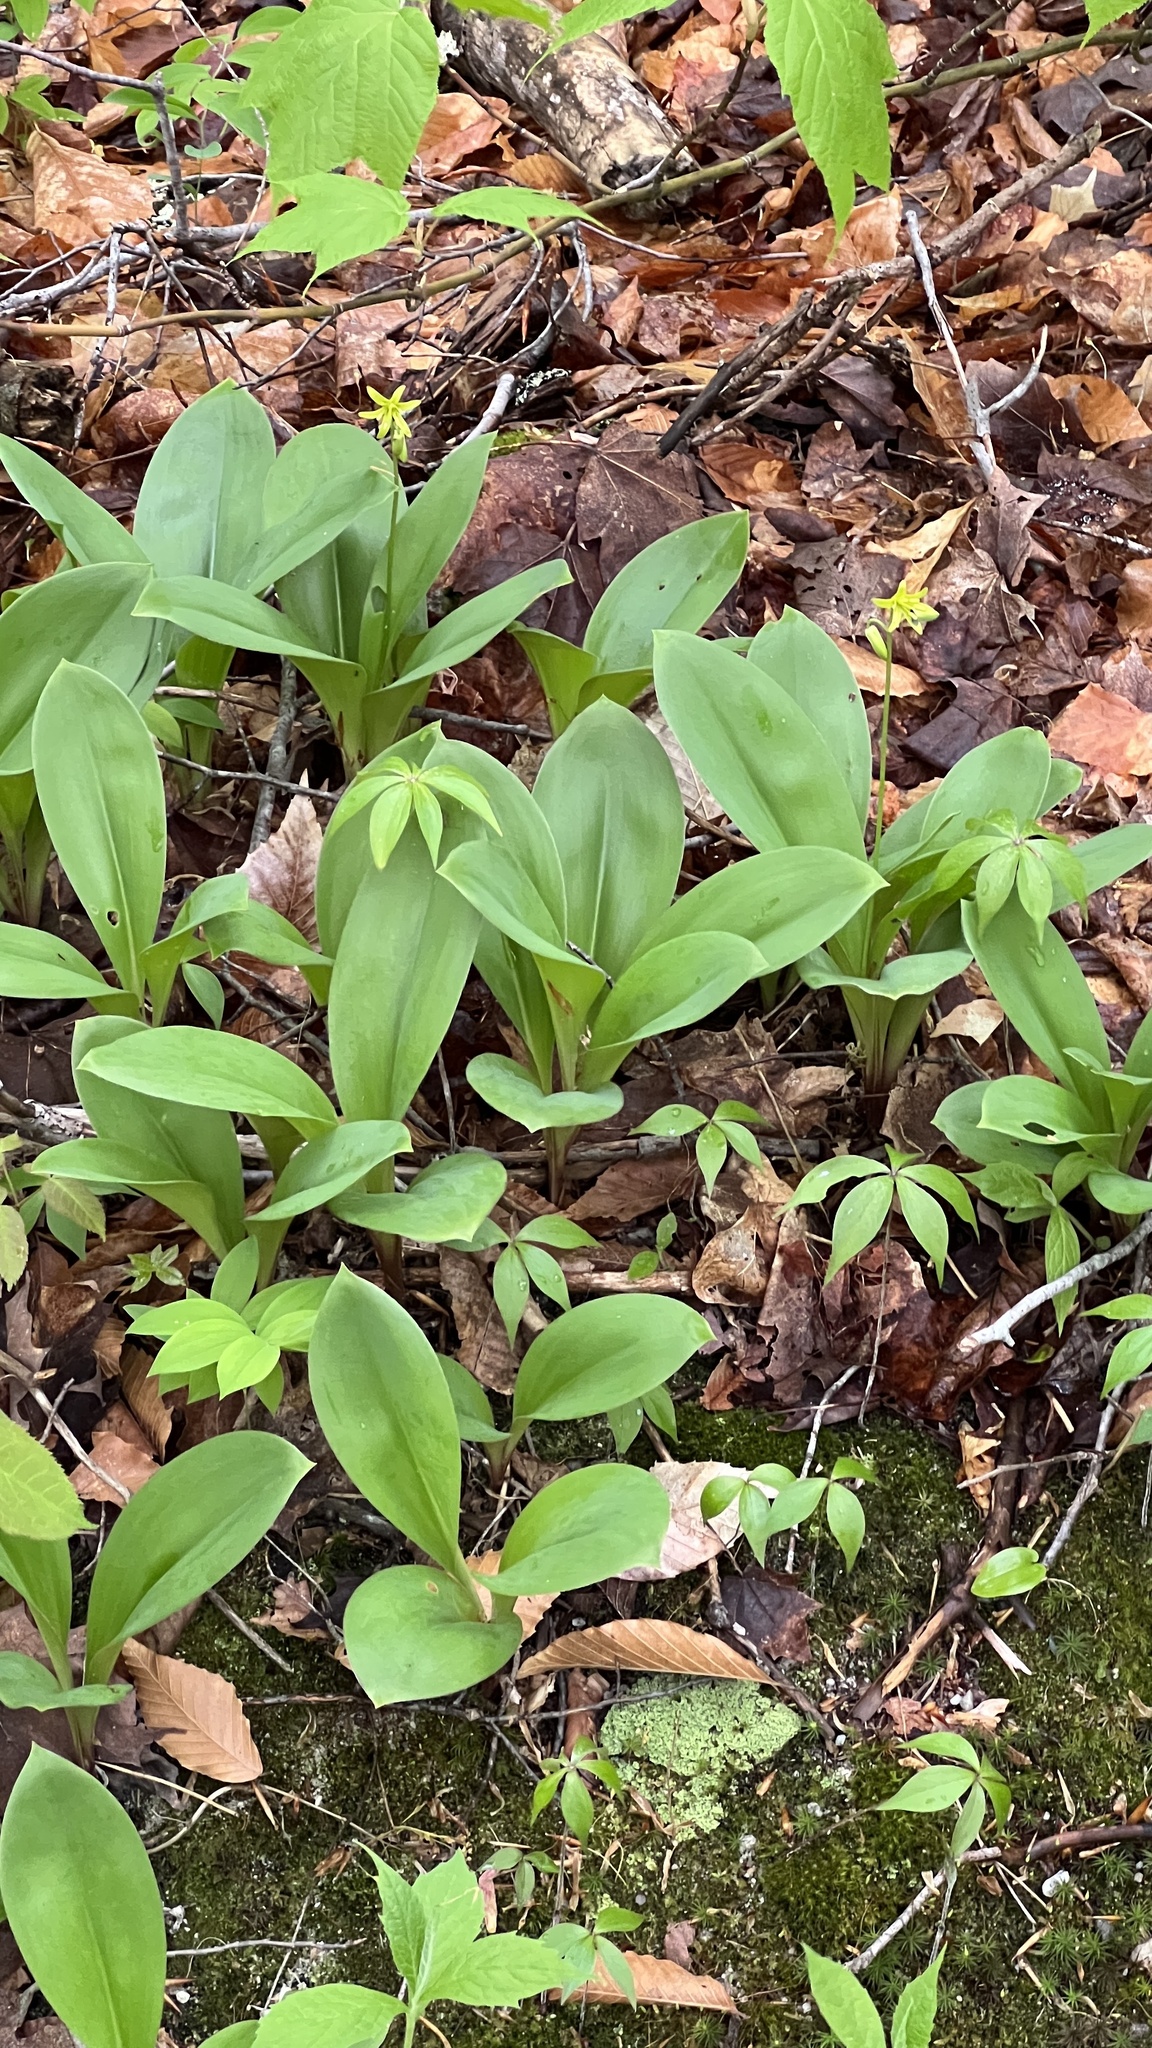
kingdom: Plantae
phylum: Tracheophyta
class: Liliopsida
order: Liliales
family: Liliaceae
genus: Clintonia
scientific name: Clintonia borealis
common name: Yellow clintonia
